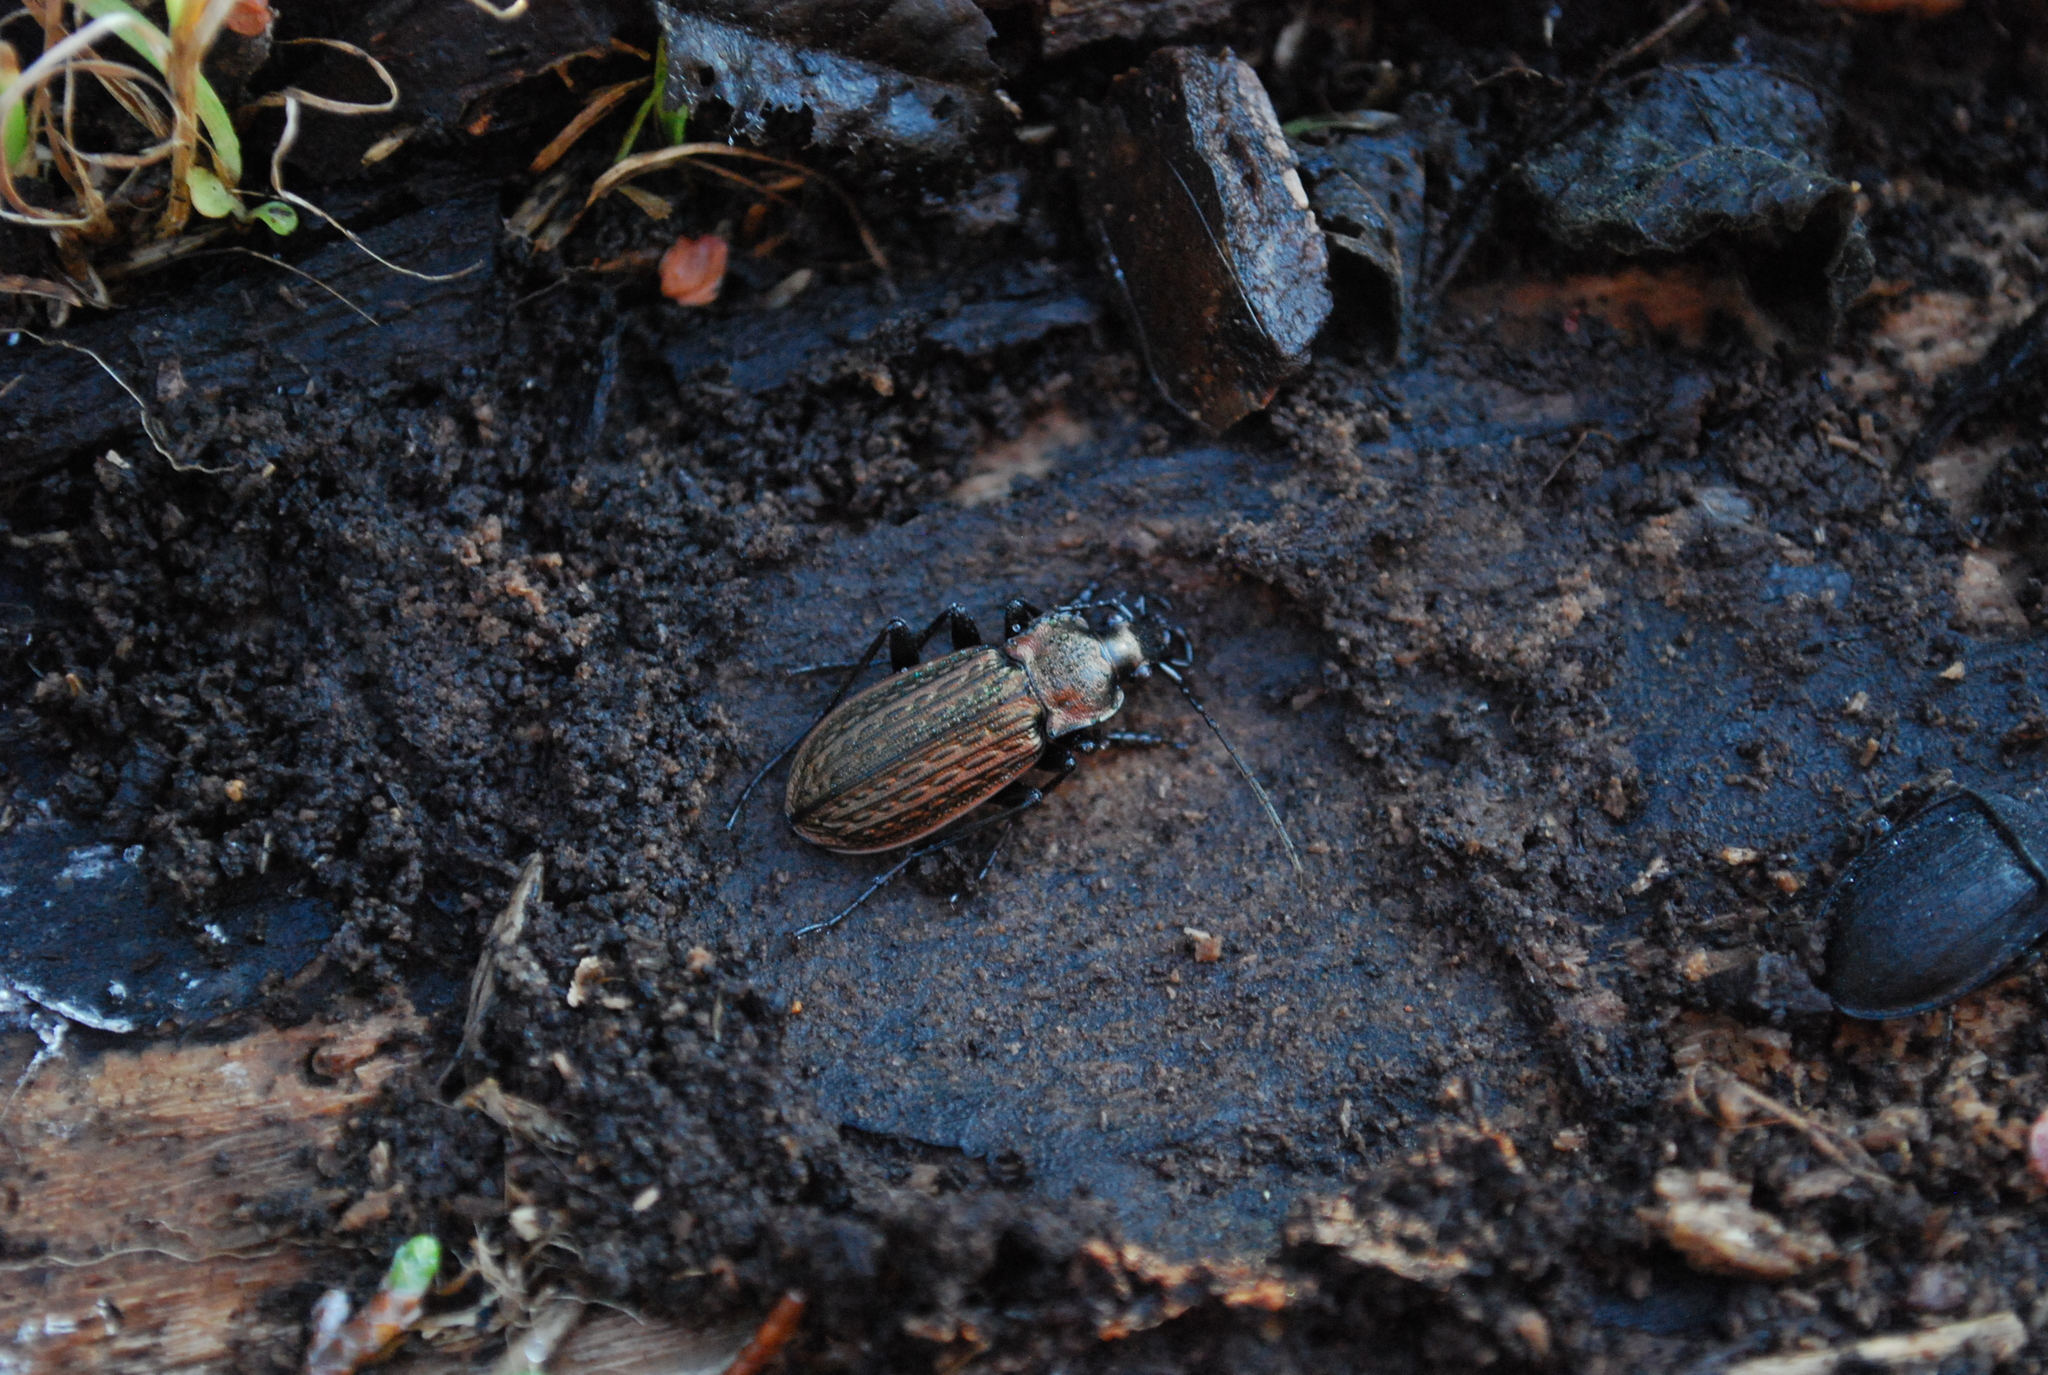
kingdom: Animalia
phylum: Arthropoda
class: Insecta
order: Coleoptera
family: Carabidae
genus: Carabus
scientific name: Carabus granulatus
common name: Granulate ground beetle
